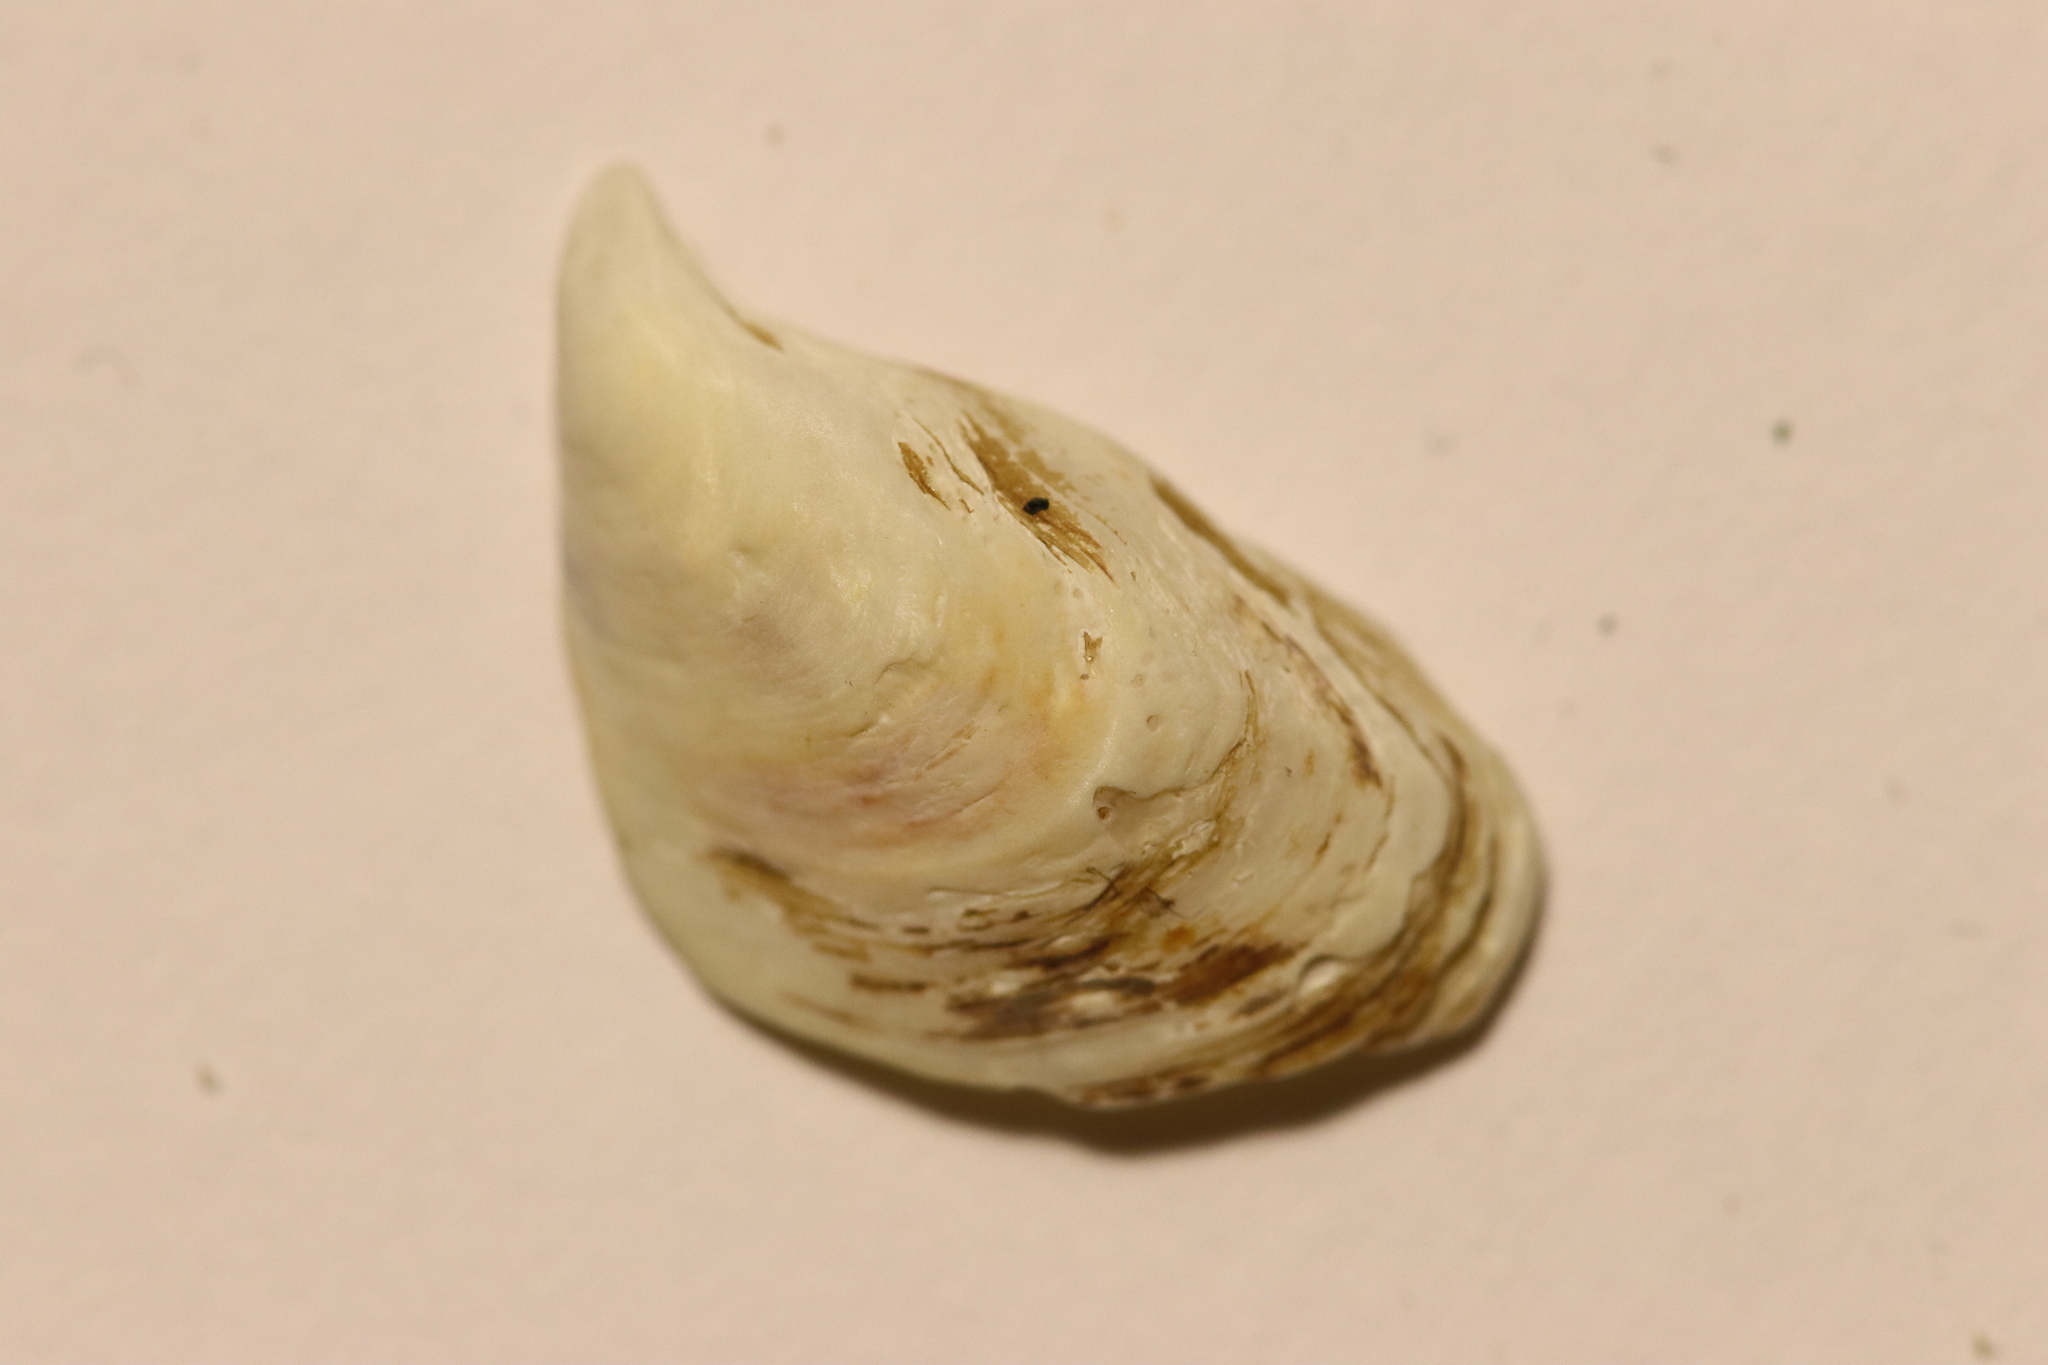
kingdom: Animalia
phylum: Mollusca
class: Bivalvia
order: Myida
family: Dreissenidae
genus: Dreissena
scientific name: Dreissena bugensis
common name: Quagga mussel
